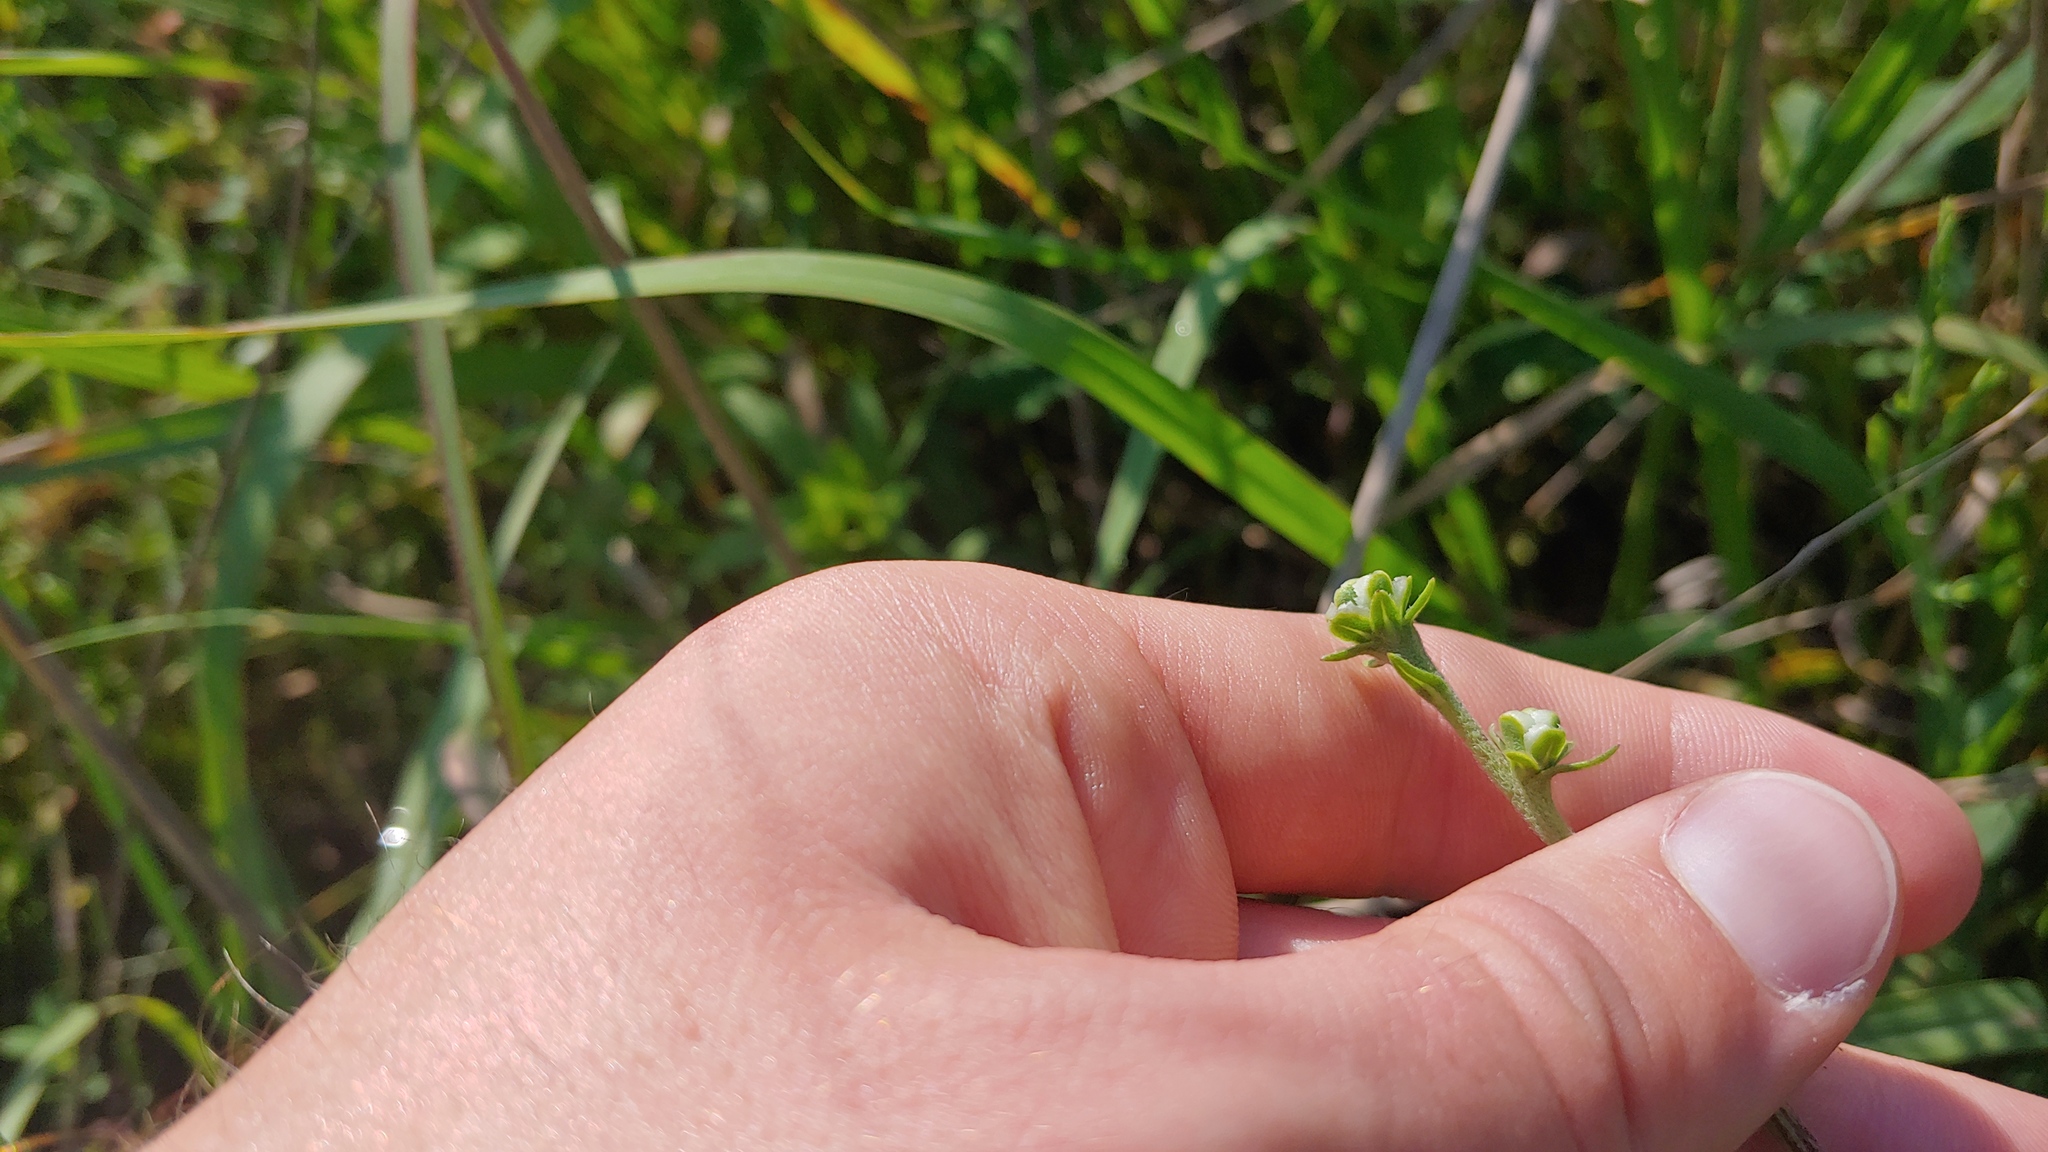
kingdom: Plantae
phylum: Tracheophyta
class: Magnoliopsida
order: Asterales
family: Asteraceae
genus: Liatris
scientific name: Liatris aspera
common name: Lacerate blazing-star
